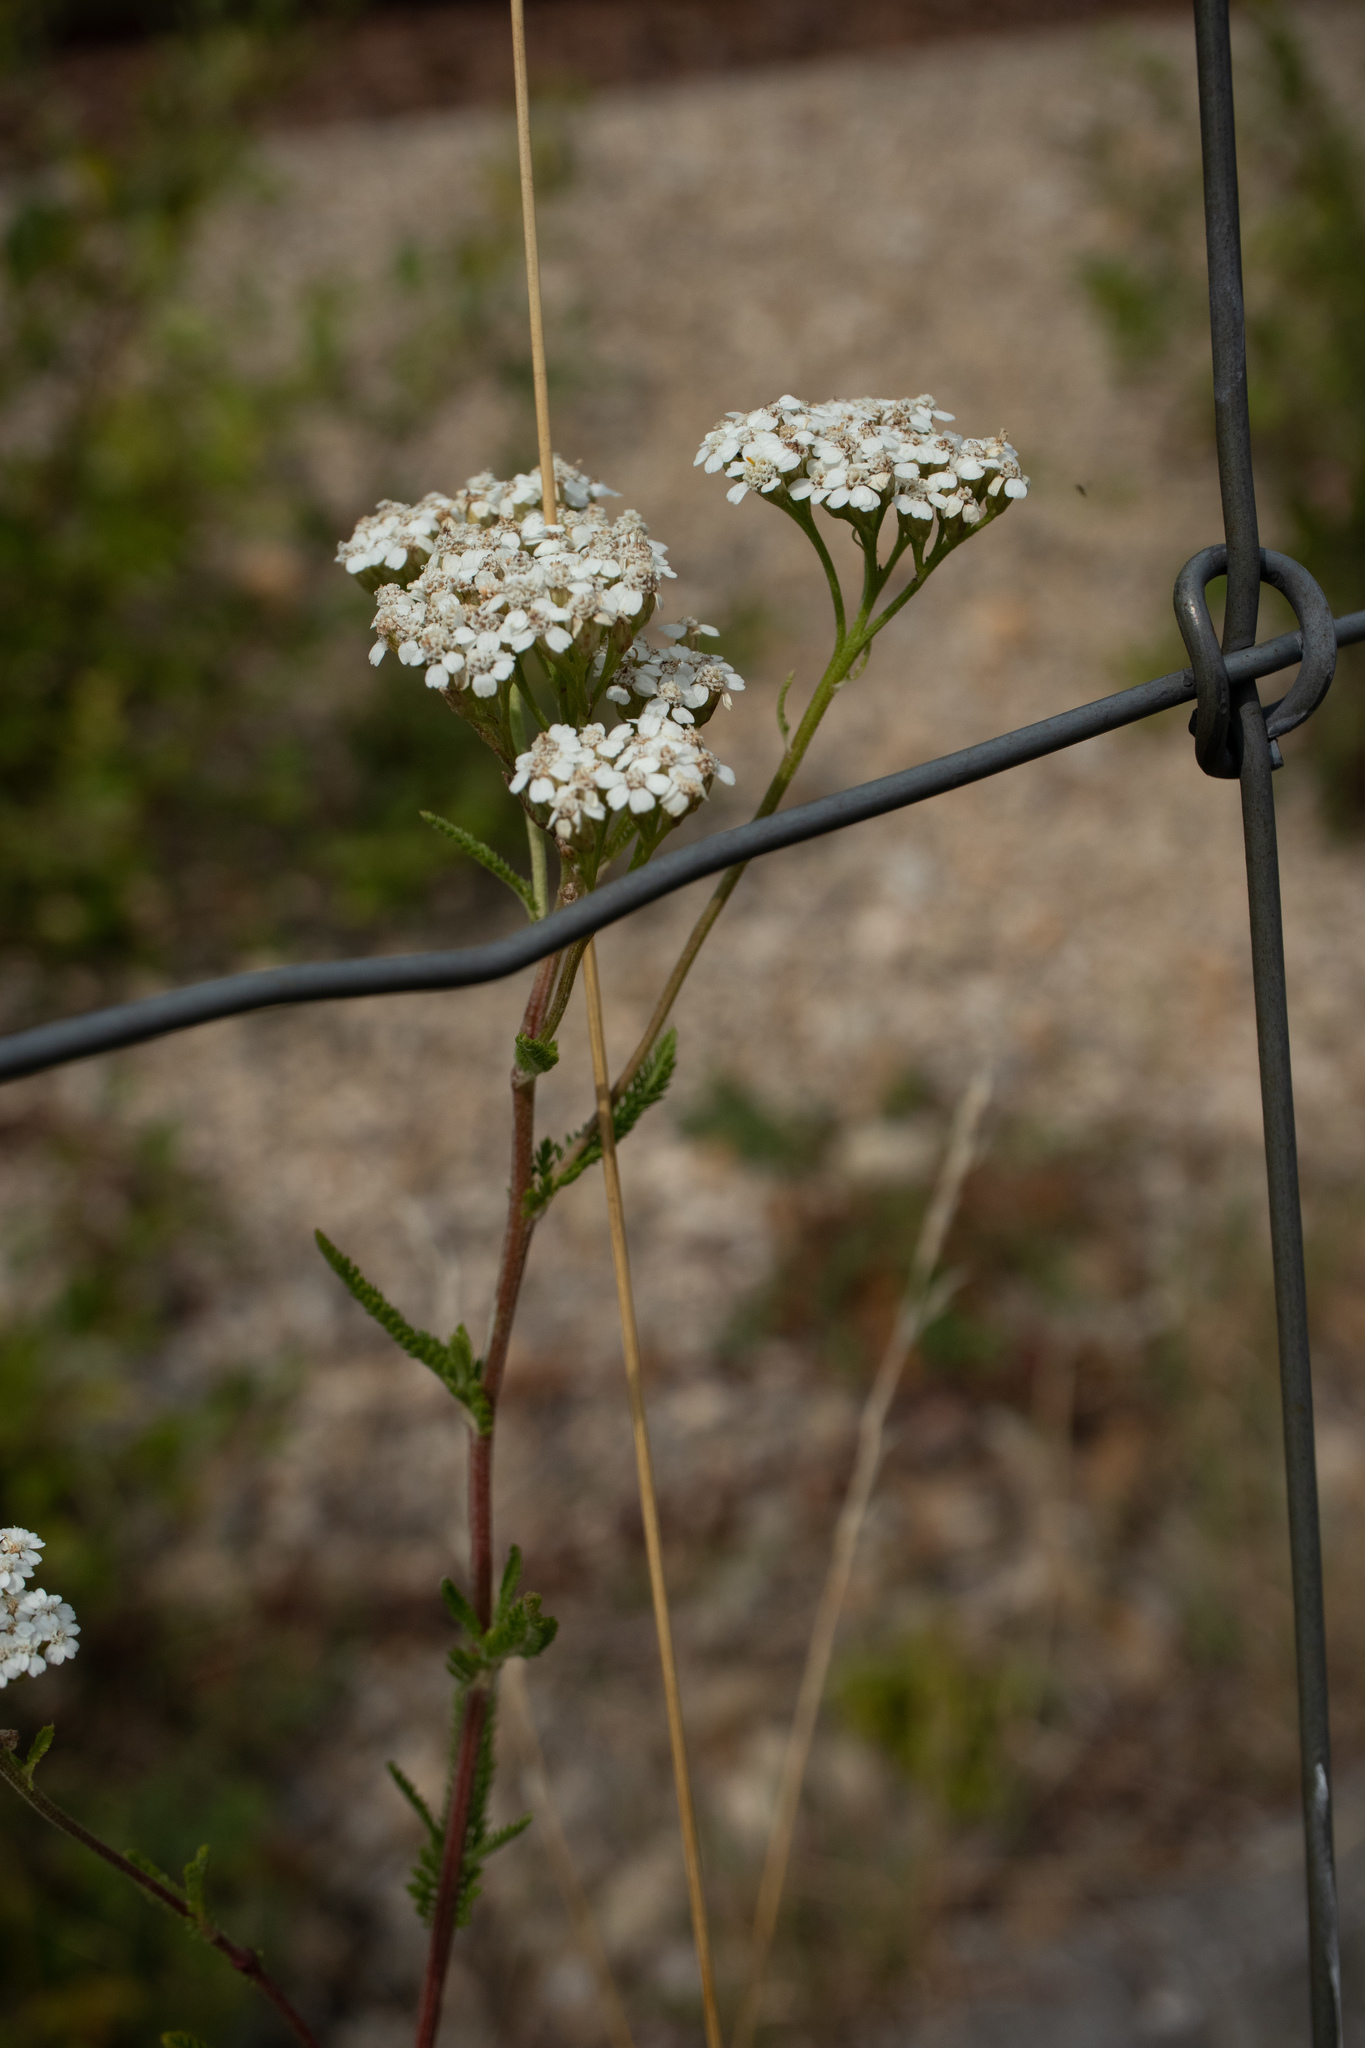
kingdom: Plantae
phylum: Tracheophyta
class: Magnoliopsida
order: Asterales
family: Asteraceae
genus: Achillea
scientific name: Achillea millefolium
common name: Yarrow
